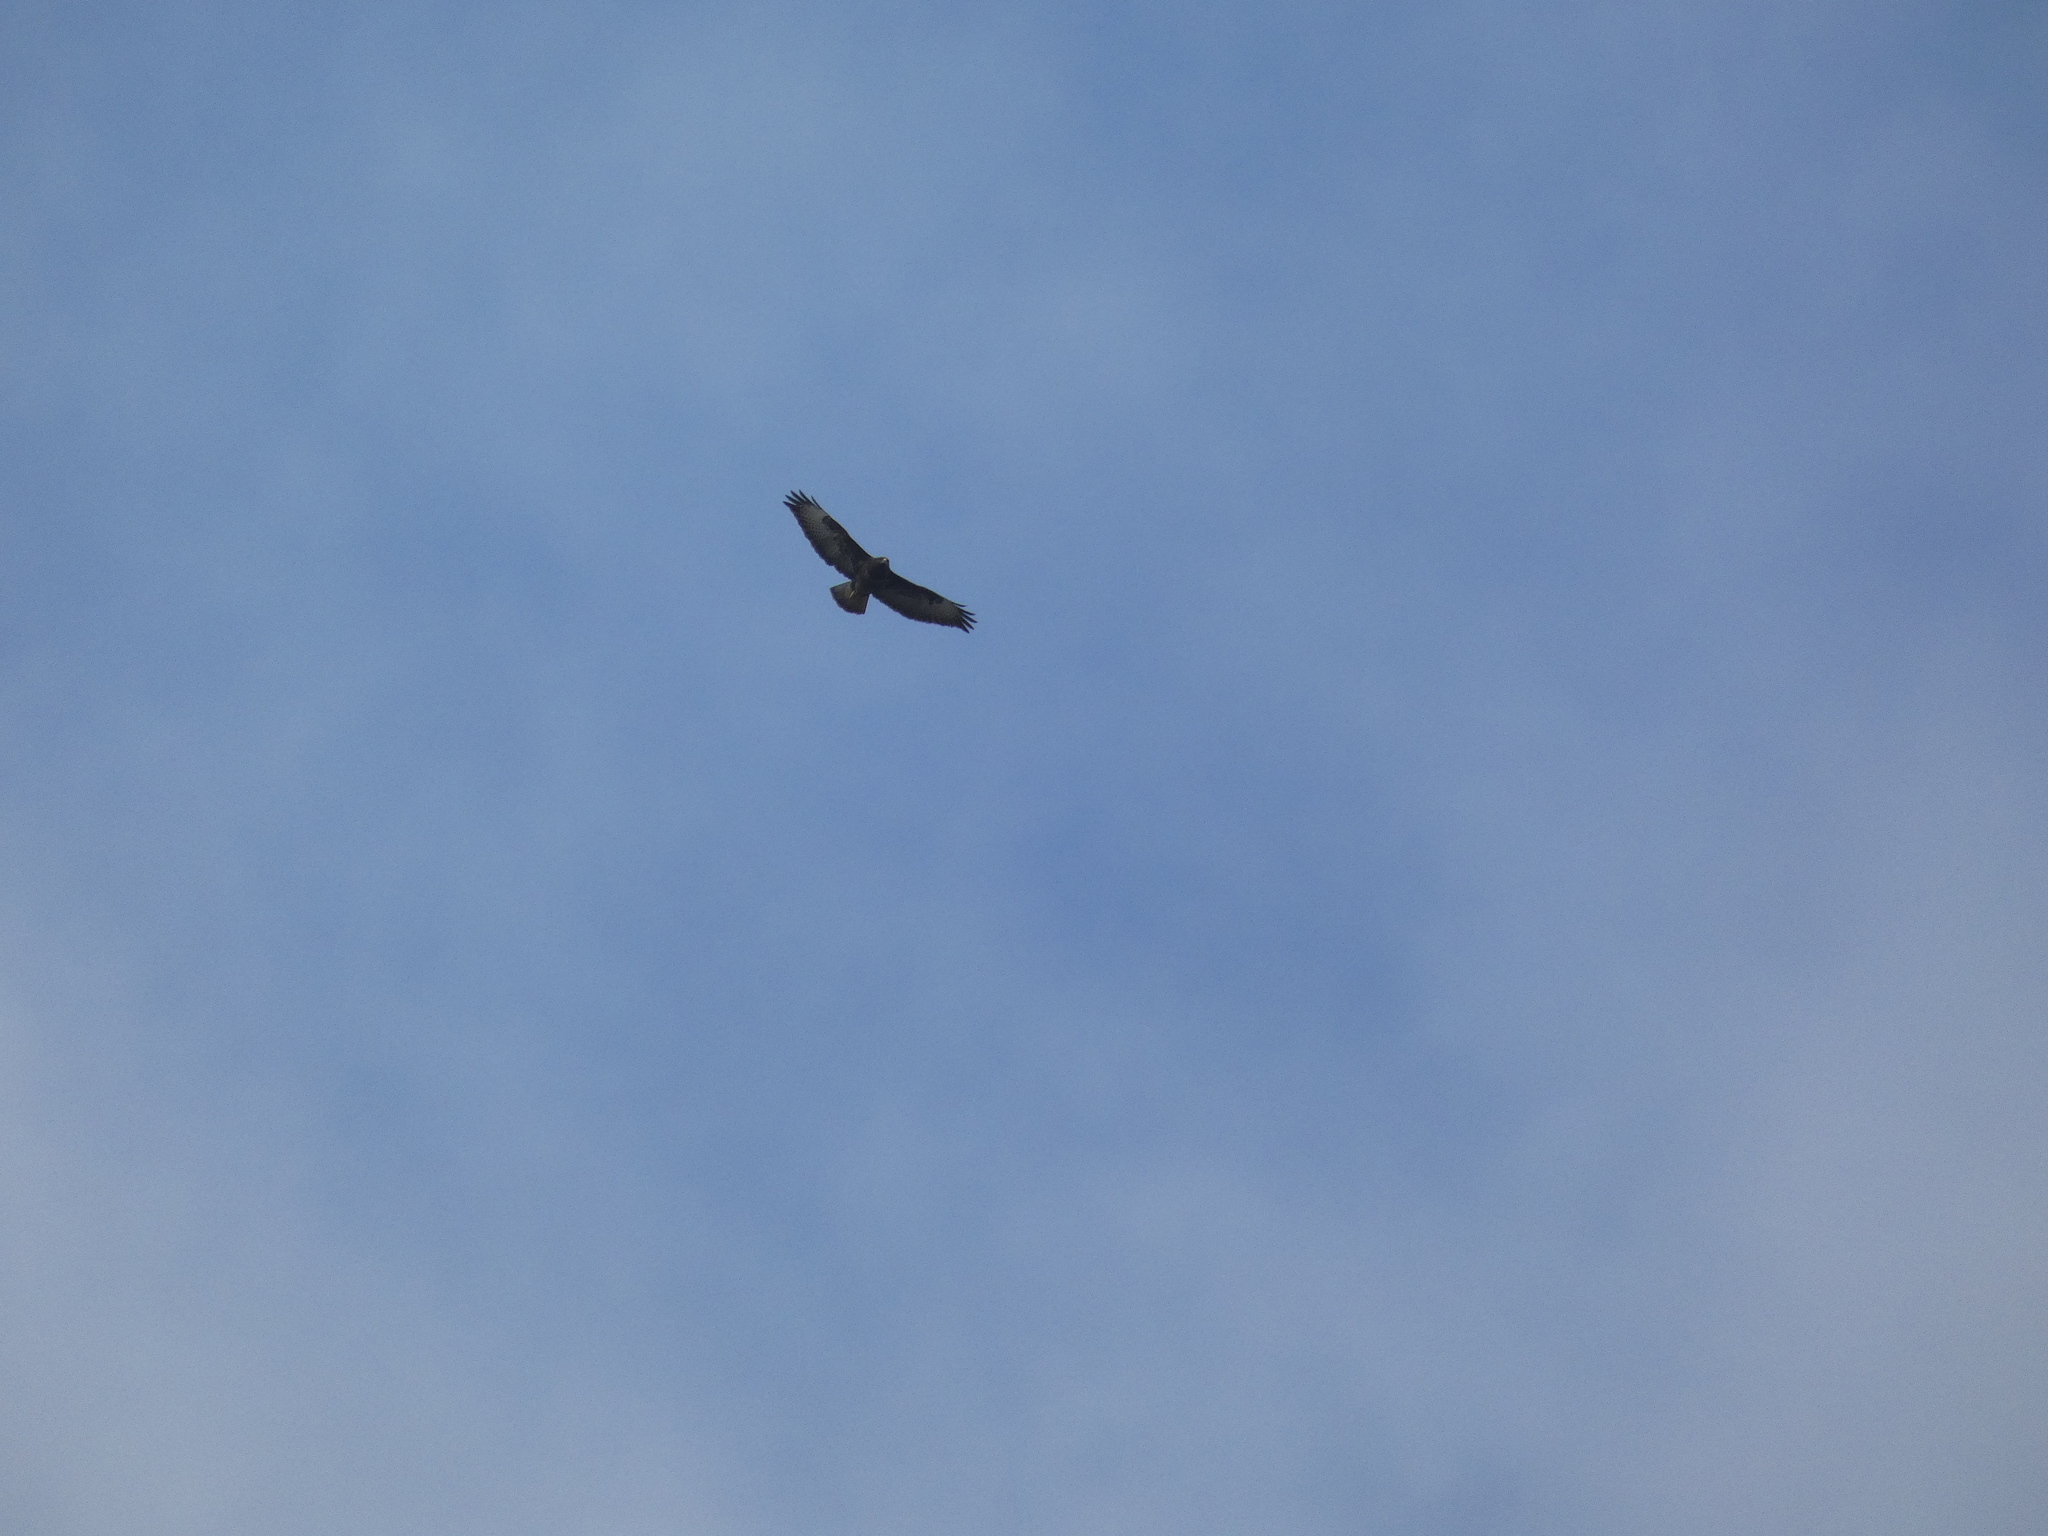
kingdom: Animalia
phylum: Chordata
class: Aves
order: Accipitriformes
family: Accipitridae
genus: Buteo
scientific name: Buteo buteo
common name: Common buzzard
